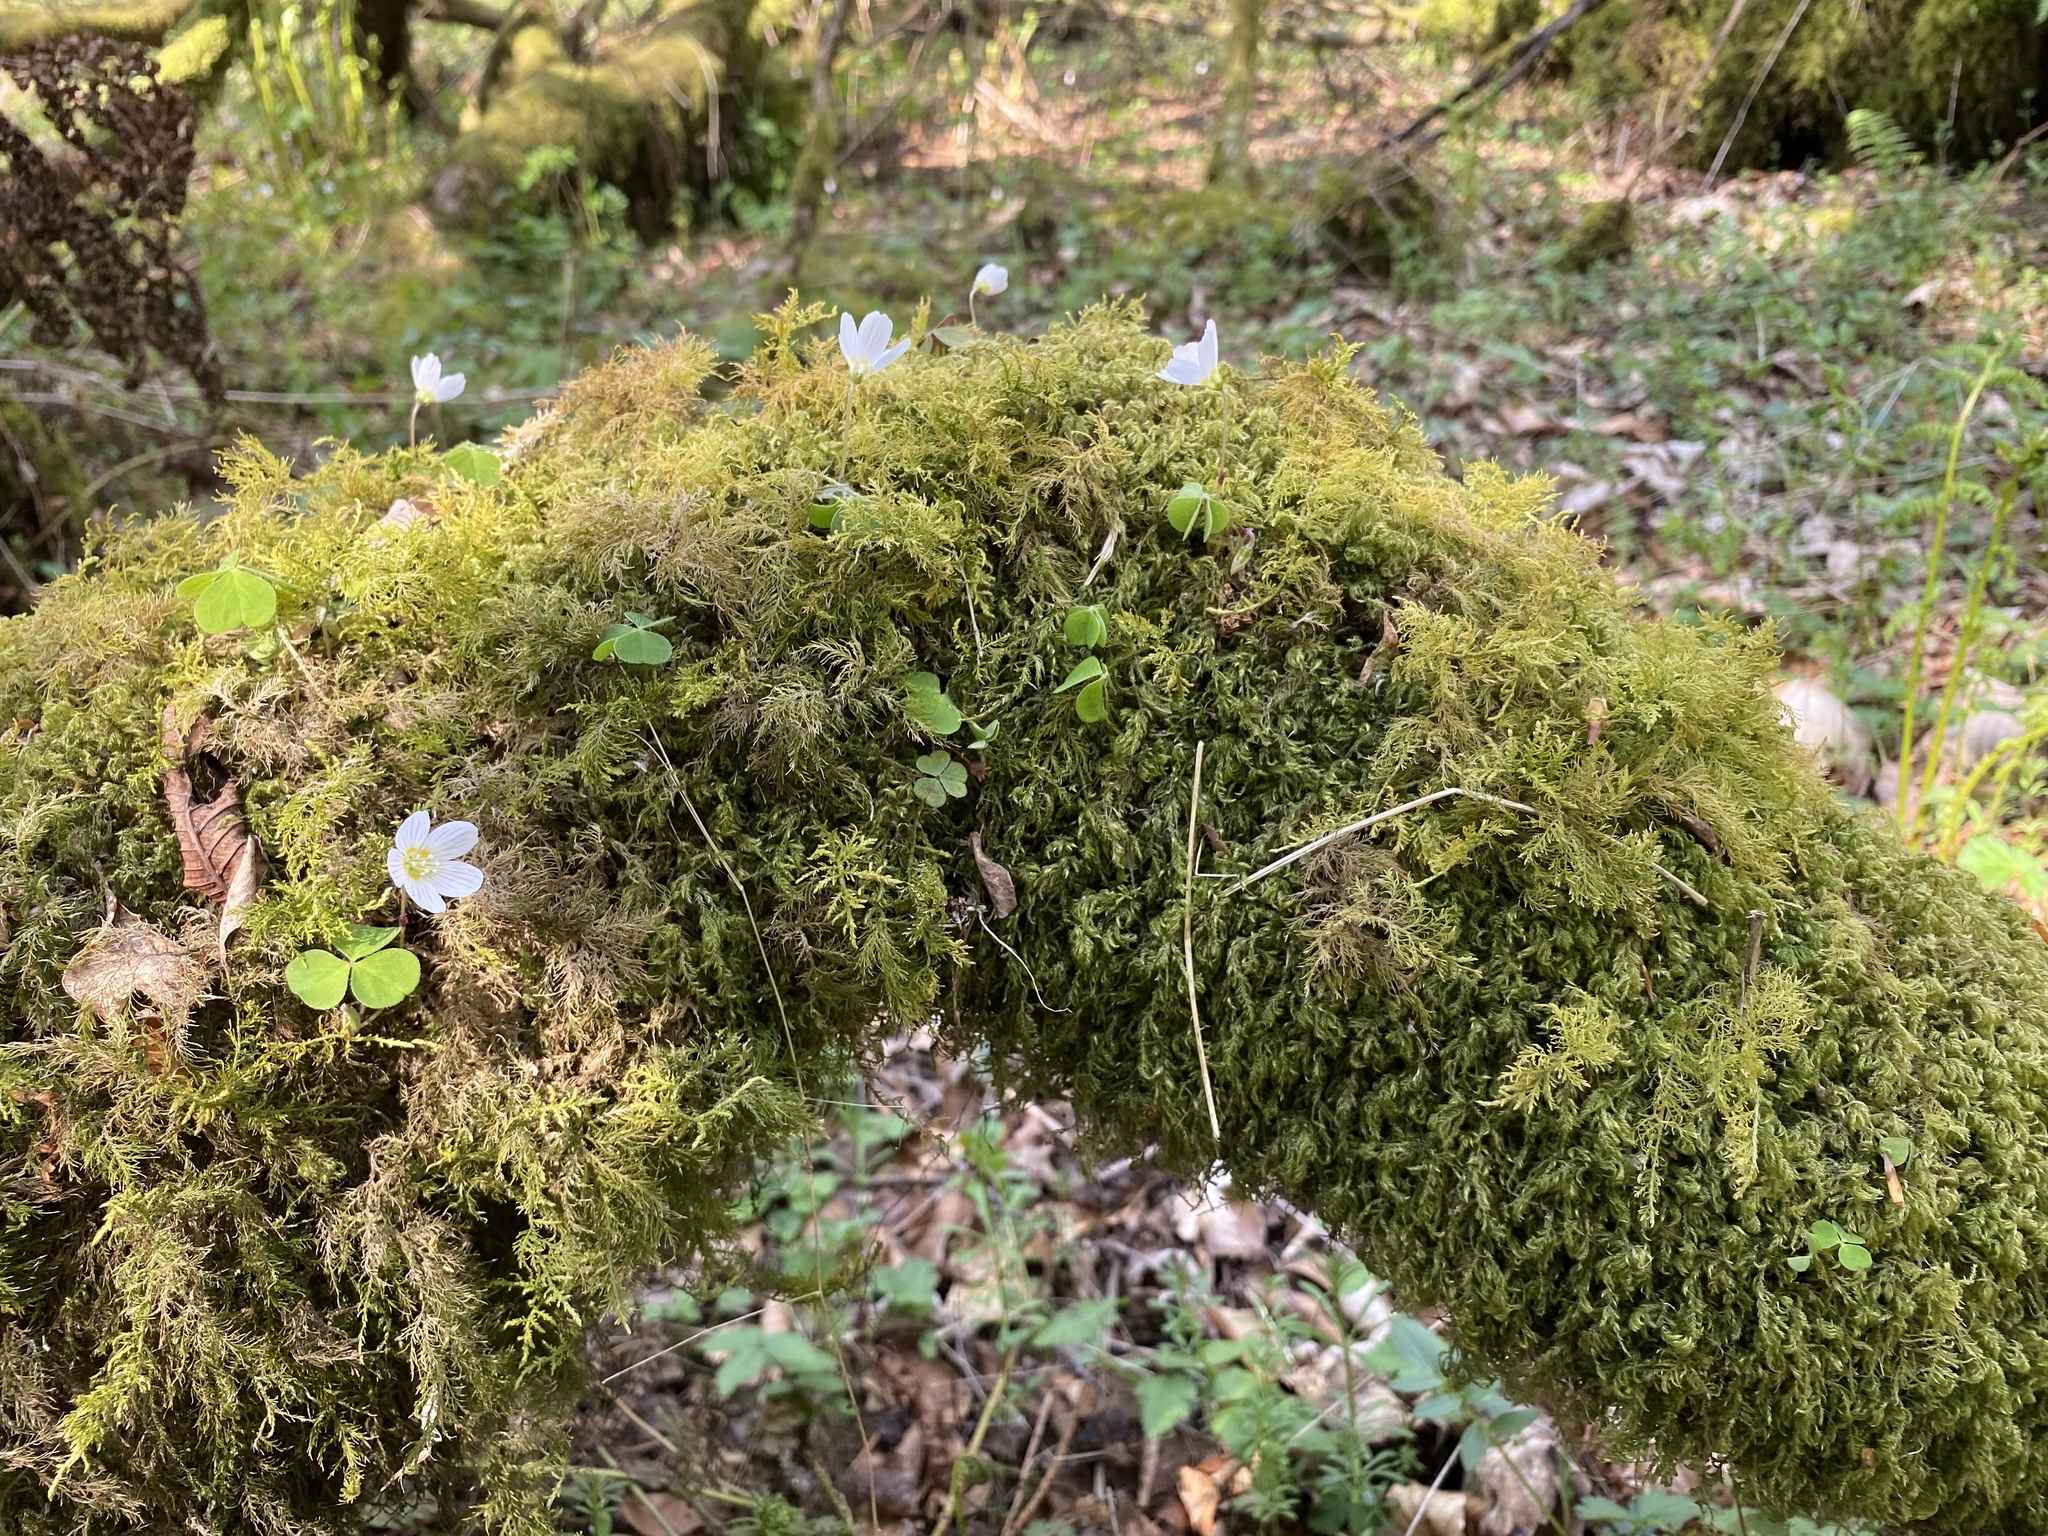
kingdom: Plantae
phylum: Tracheophyta
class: Magnoliopsida
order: Oxalidales
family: Oxalidaceae
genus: Oxalis
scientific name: Oxalis acetosella
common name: Wood-sorrel
